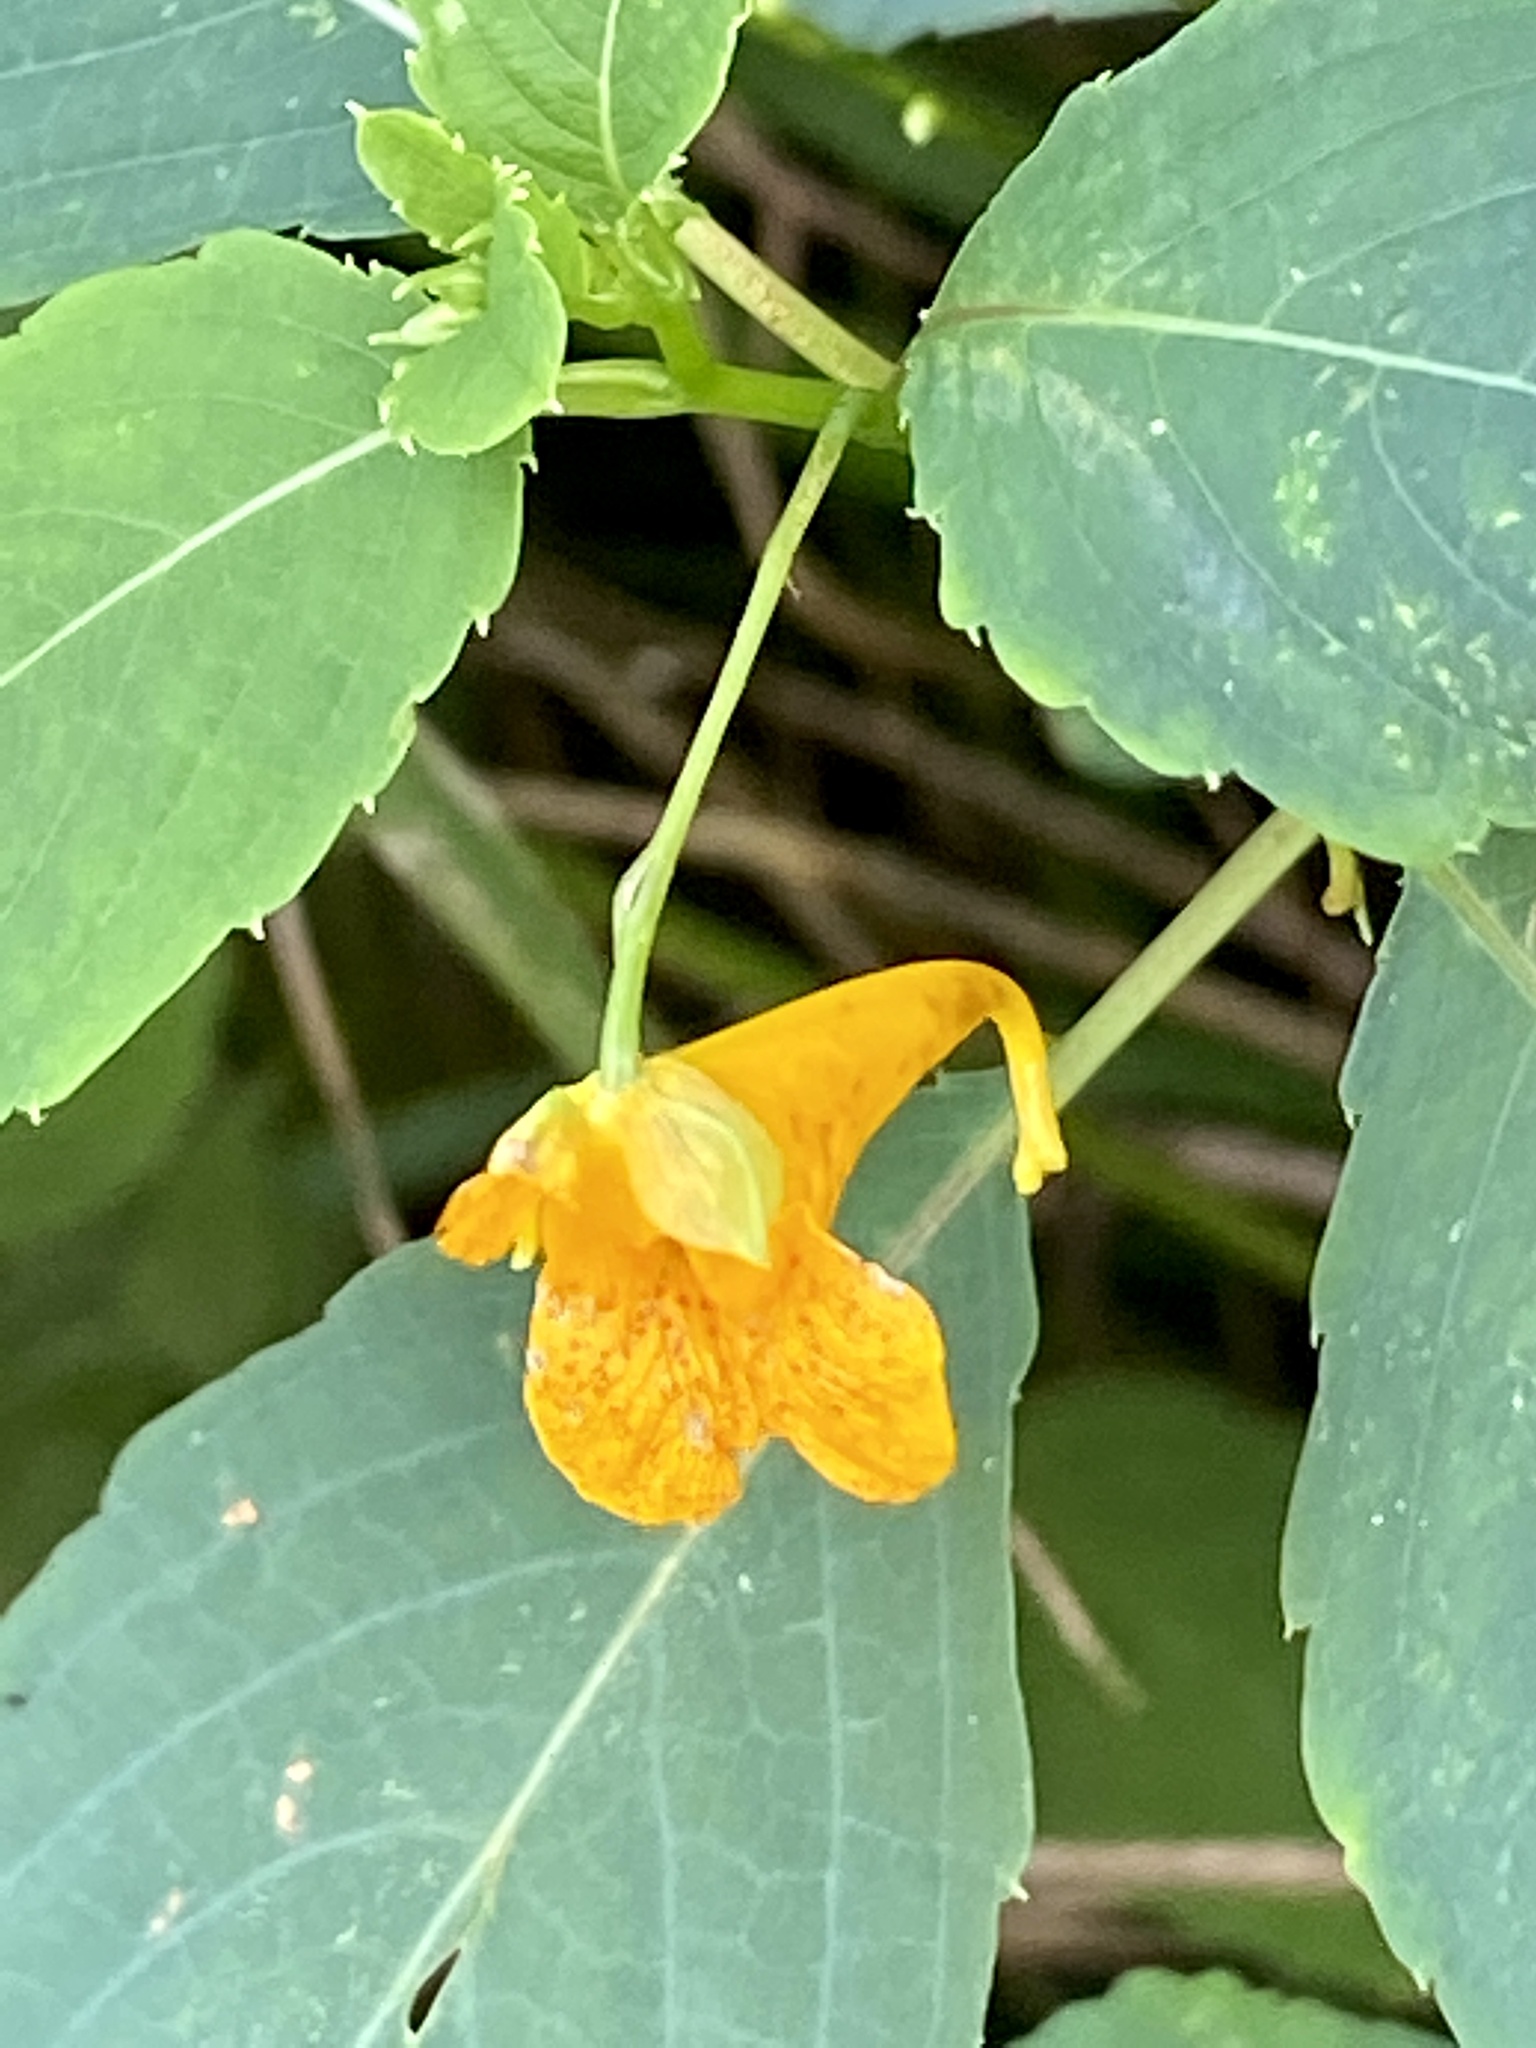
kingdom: Plantae
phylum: Tracheophyta
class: Magnoliopsida
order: Ericales
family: Balsaminaceae
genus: Impatiens
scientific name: Impatiens capensis
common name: Orange balsam
